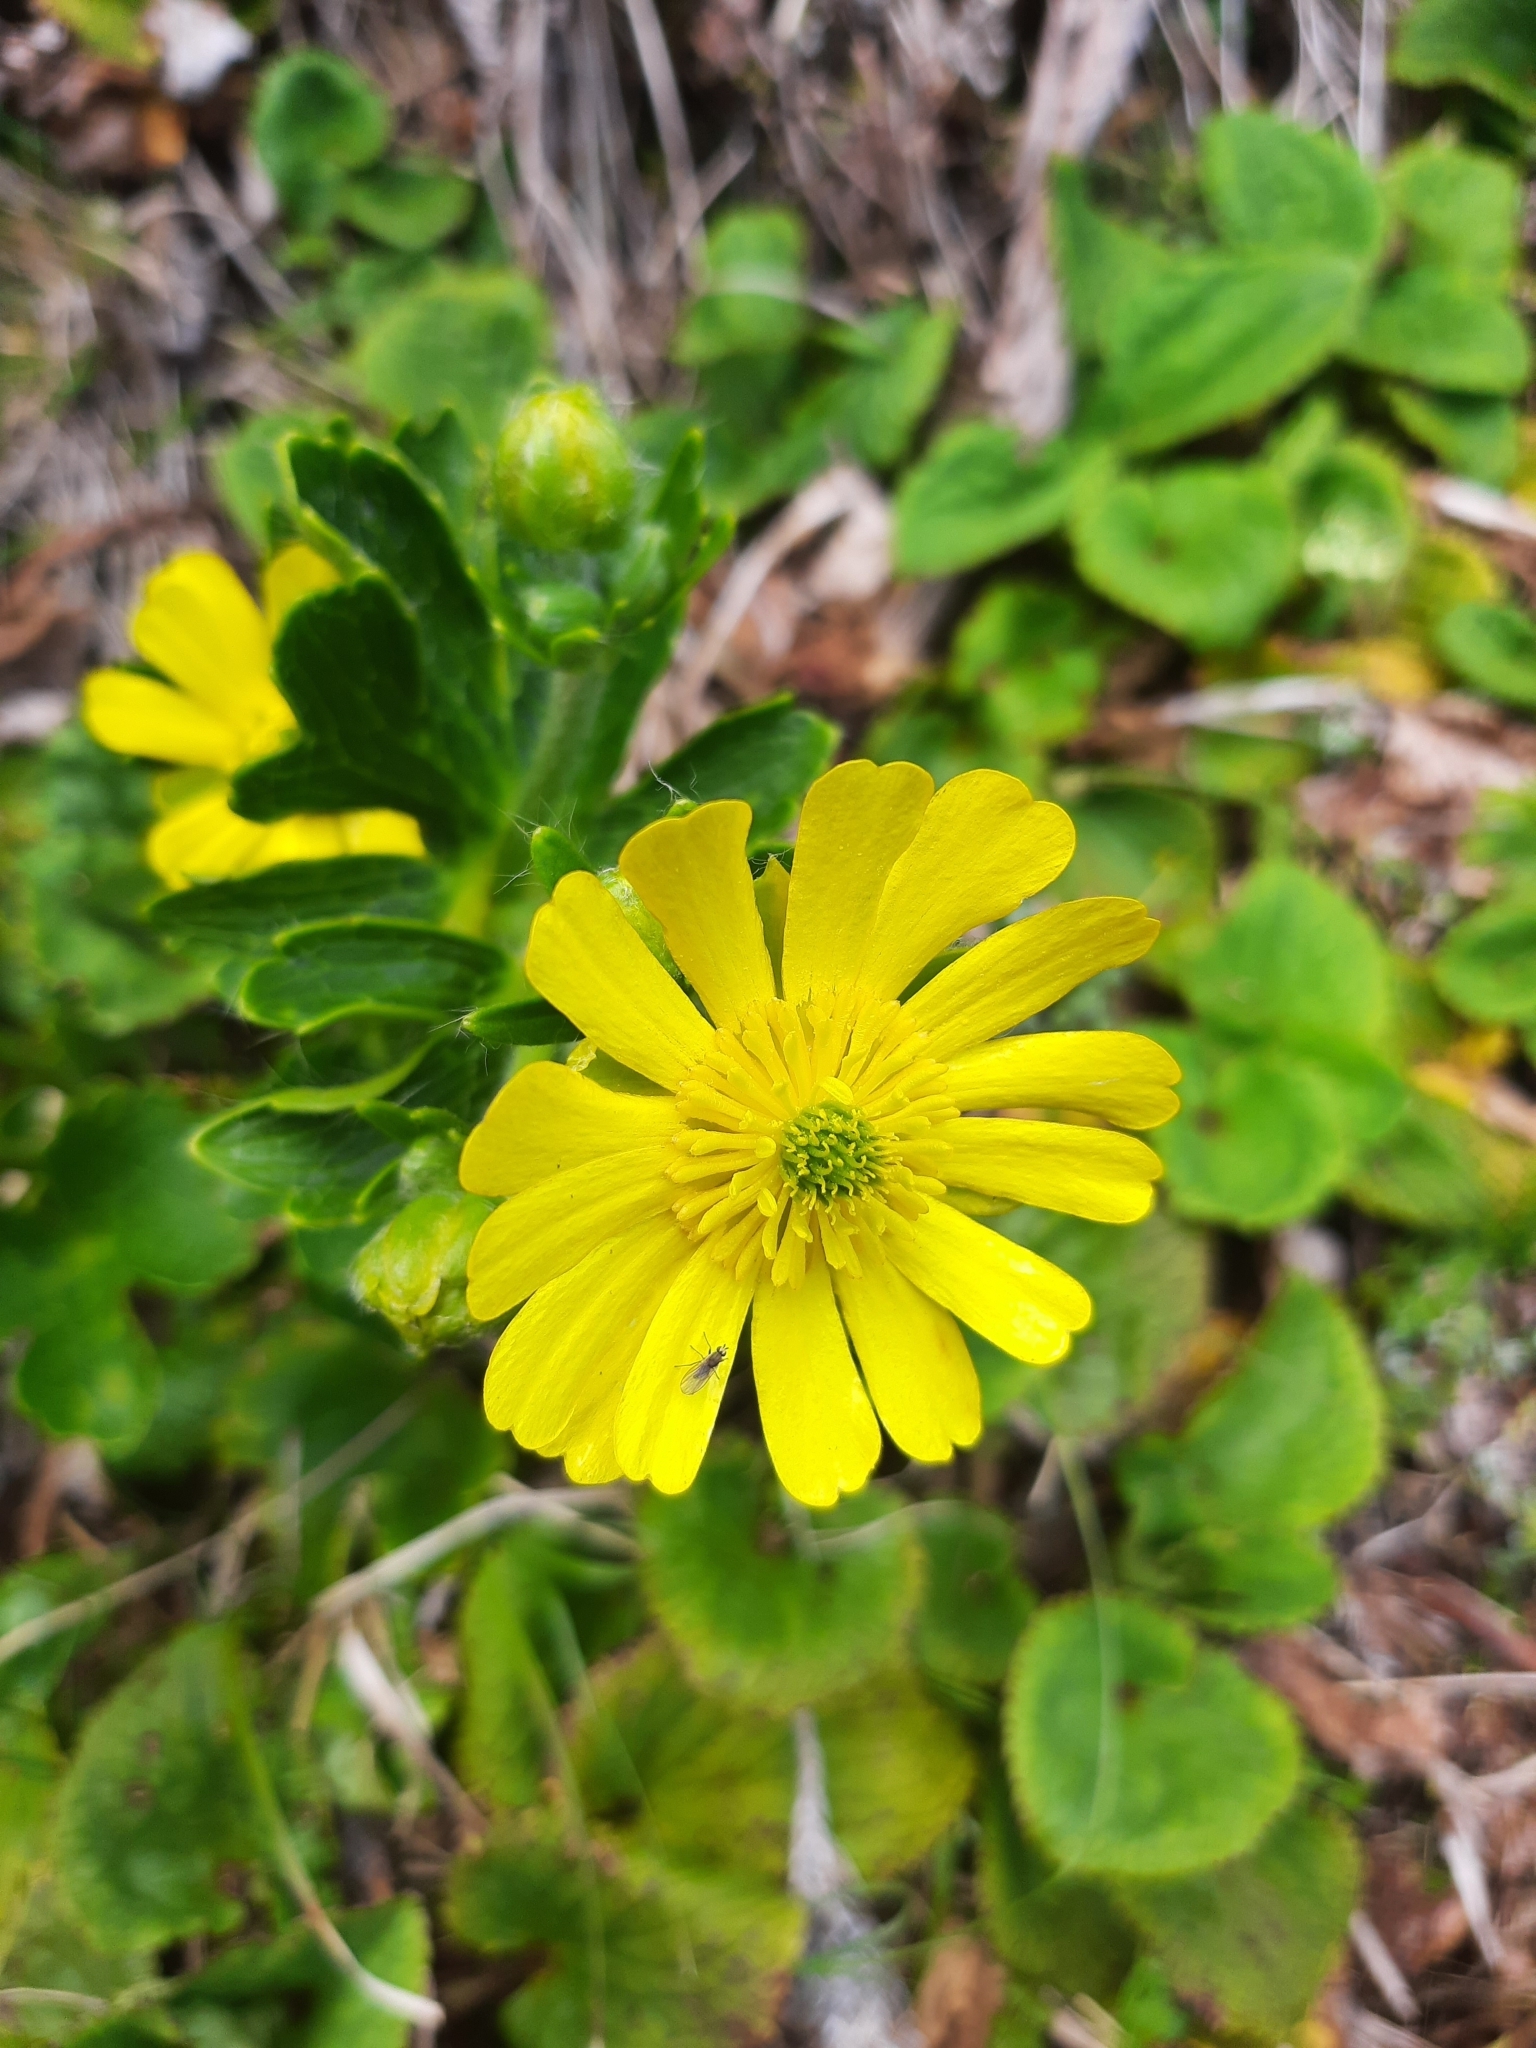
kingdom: Plantae
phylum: Tracheophyta
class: Magnoliopsida
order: Ranunculales
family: Ranunculaceae
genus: Ranunculus
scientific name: Ranunculus nivicola
